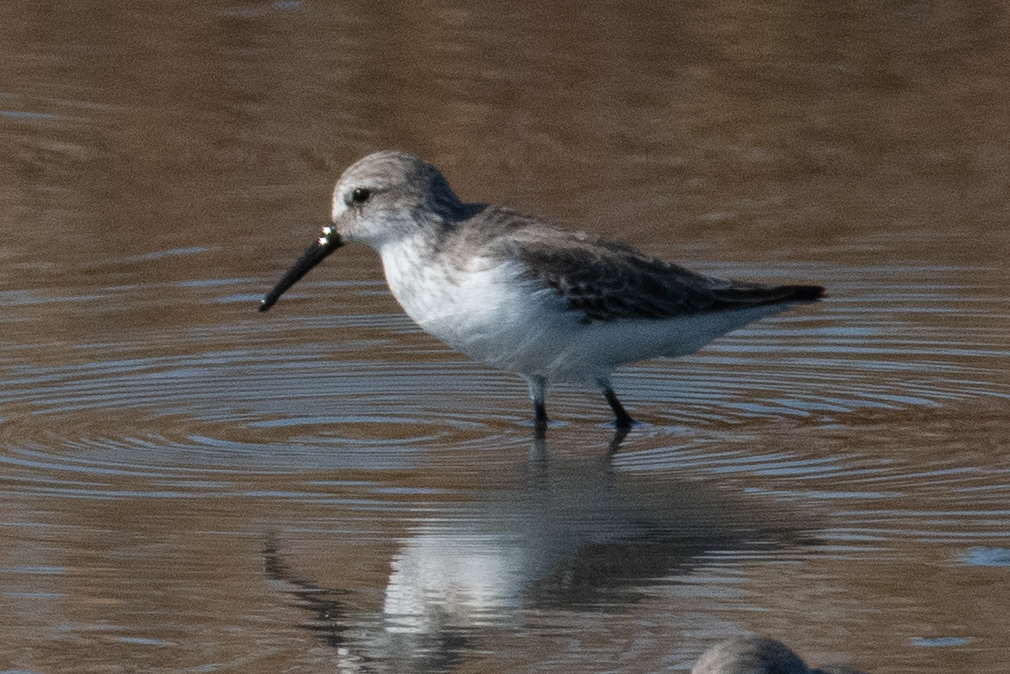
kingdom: Animalia
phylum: Chordata
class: Aves
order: Charadriiformes
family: Scolopacidae
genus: Calidris
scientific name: Calidris mauri
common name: Western sandpiper
